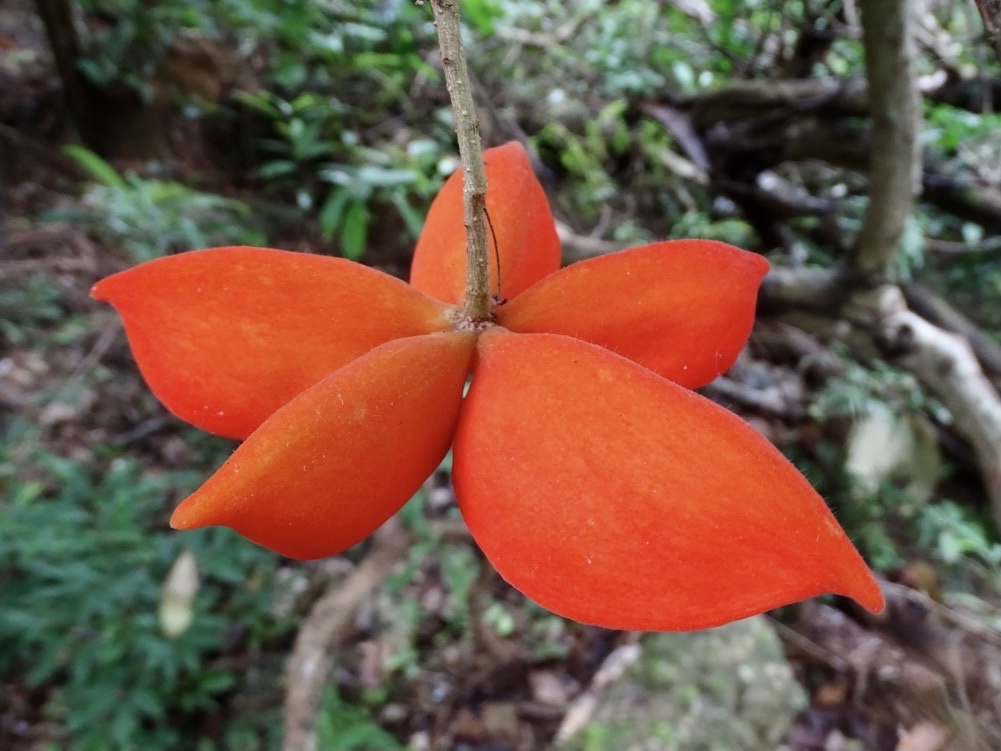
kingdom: Plantae
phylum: Tracheophyta
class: Magnoliopsida
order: Malvales
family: Malvaceae
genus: Sterculia
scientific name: Sterculia lanceolata
